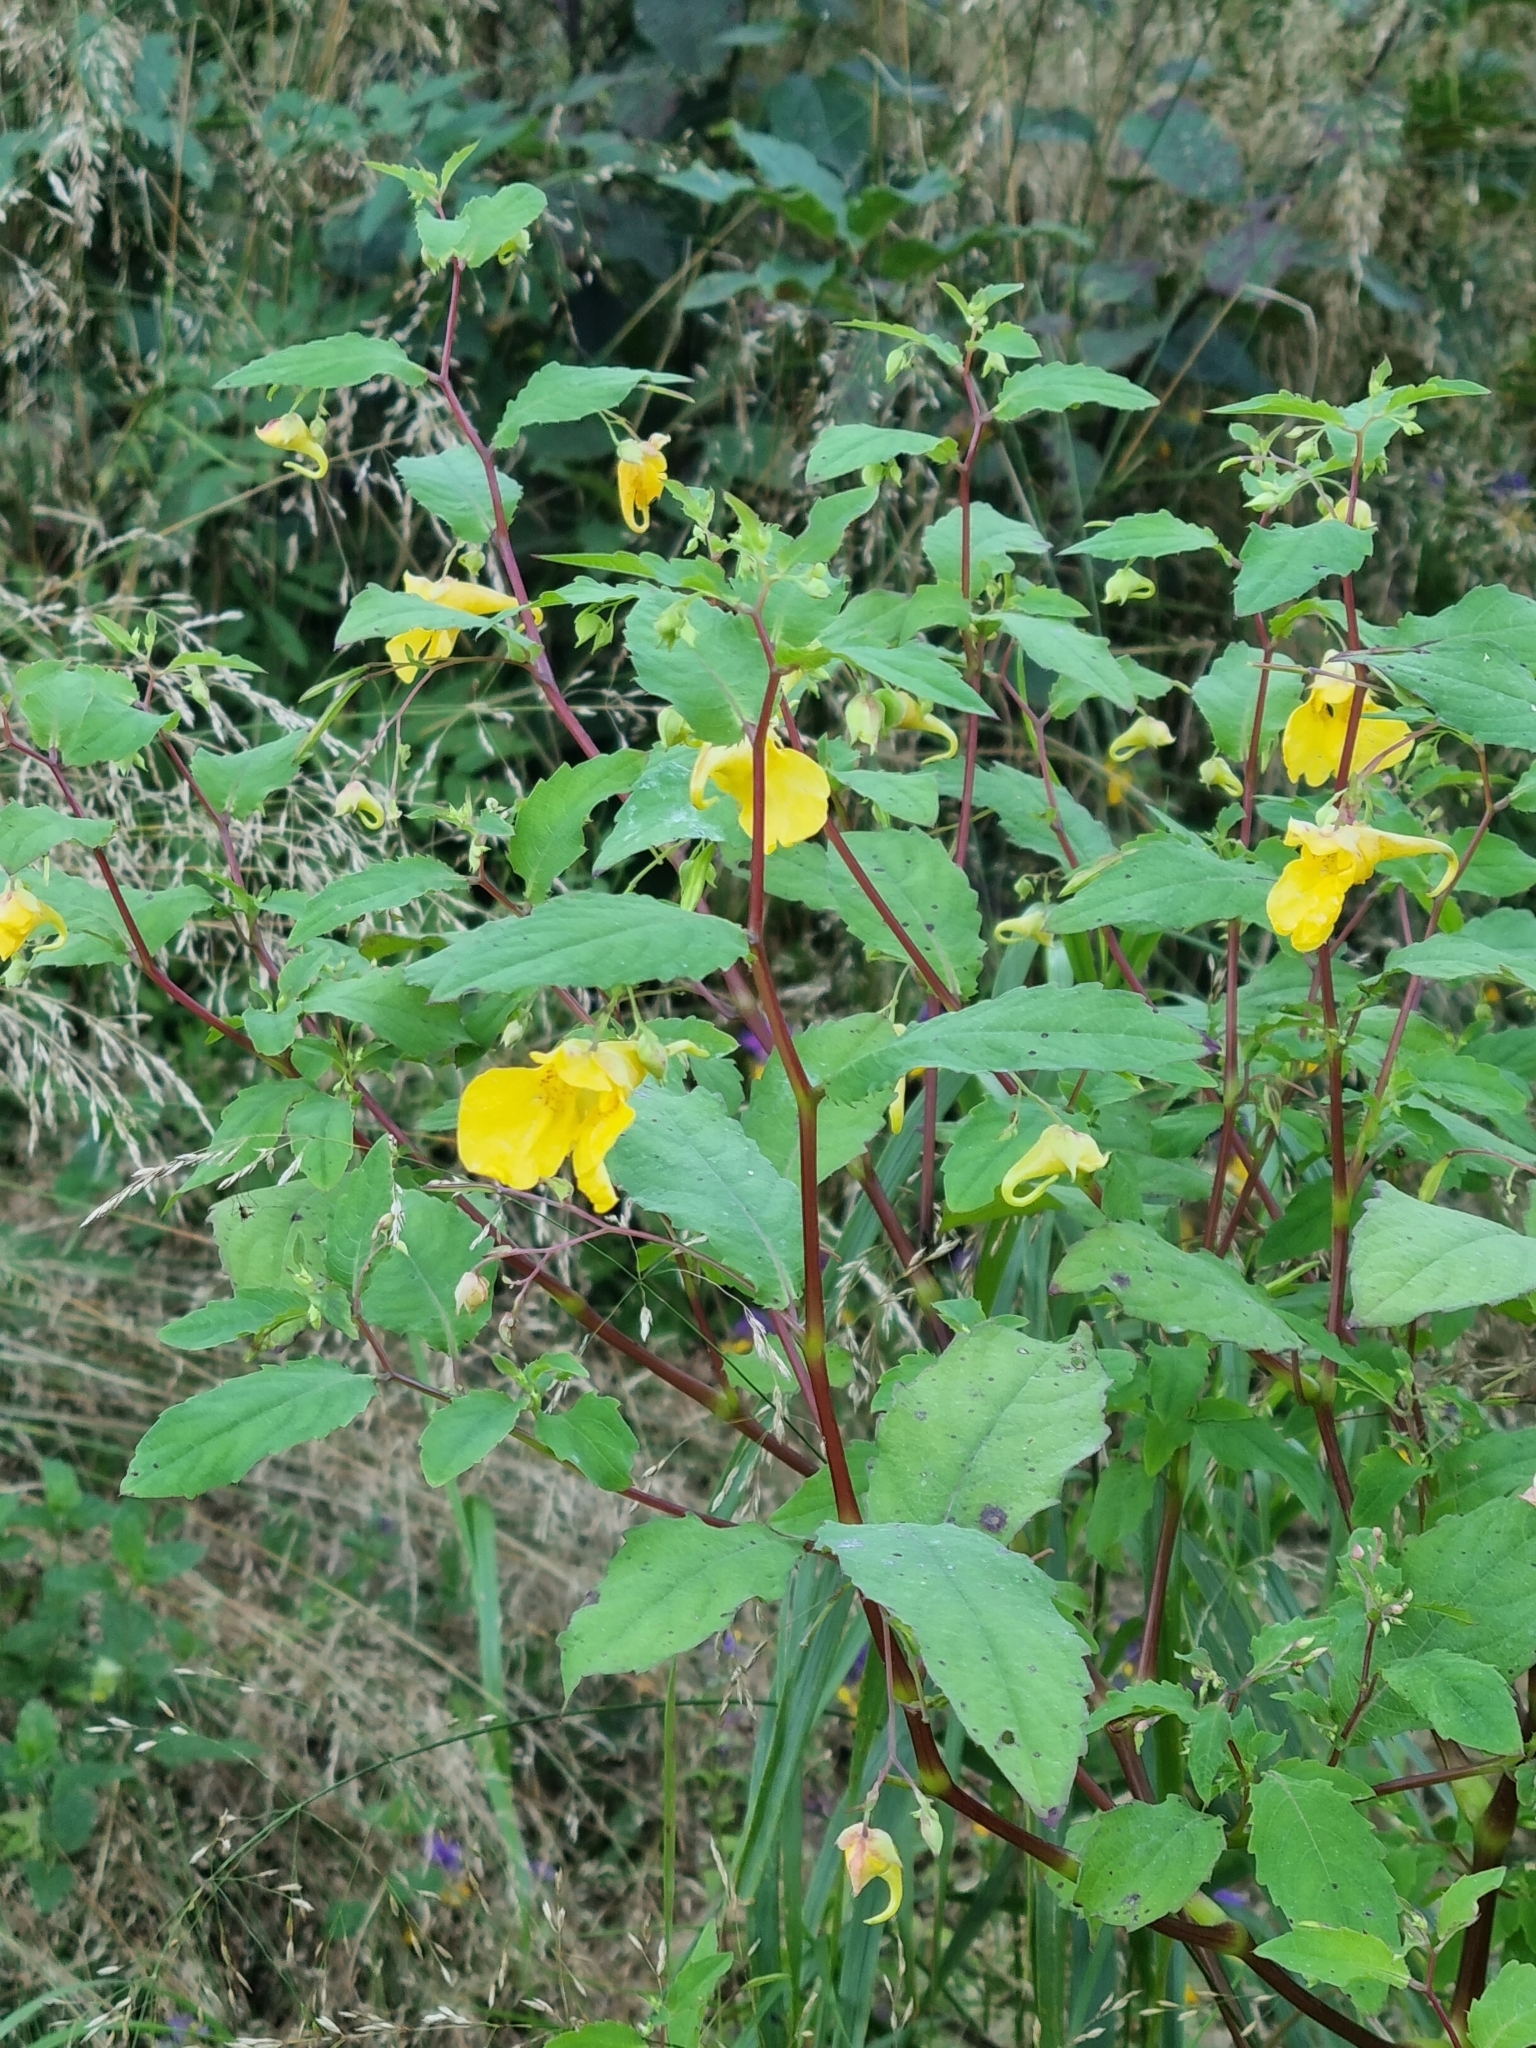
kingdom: Plantae
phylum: Tracheophyta
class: Magnoliopsida
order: Ericales
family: Balsaminaceae
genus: Impatiens
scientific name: Impatiens noli-tangere
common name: Touch-me-not balsam
